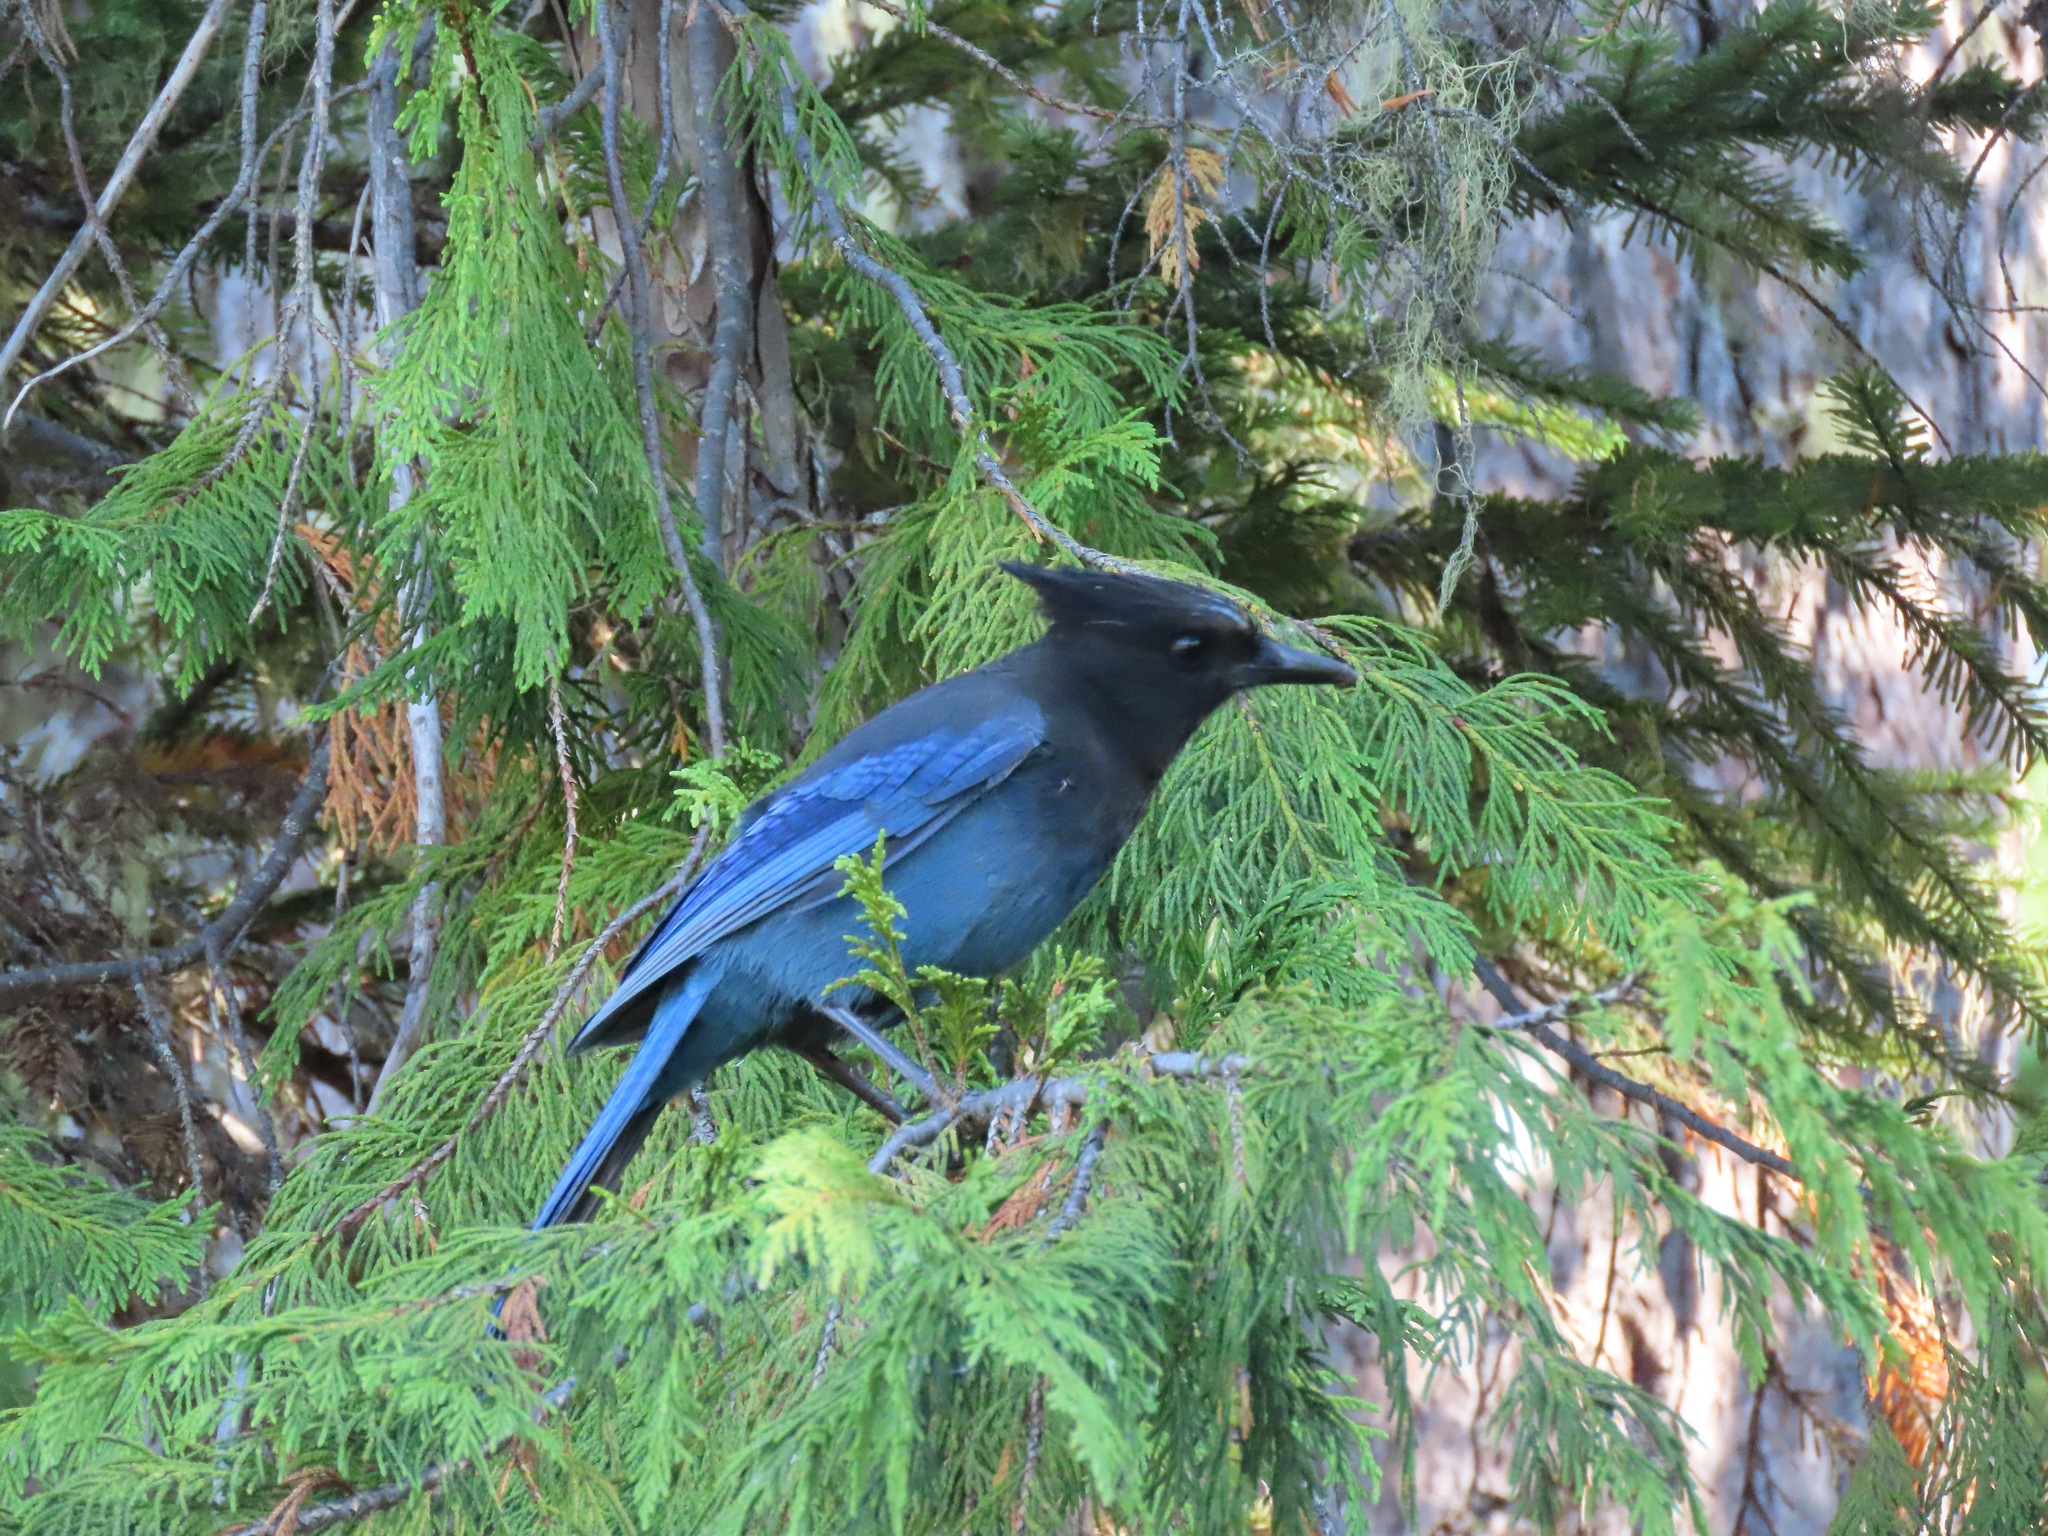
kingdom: Animalia
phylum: Chordata
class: Aves
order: Passeriformes
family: Corvidae
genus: Cyanocitta
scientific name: Cyanocitta stelleri
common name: Steller's jay
